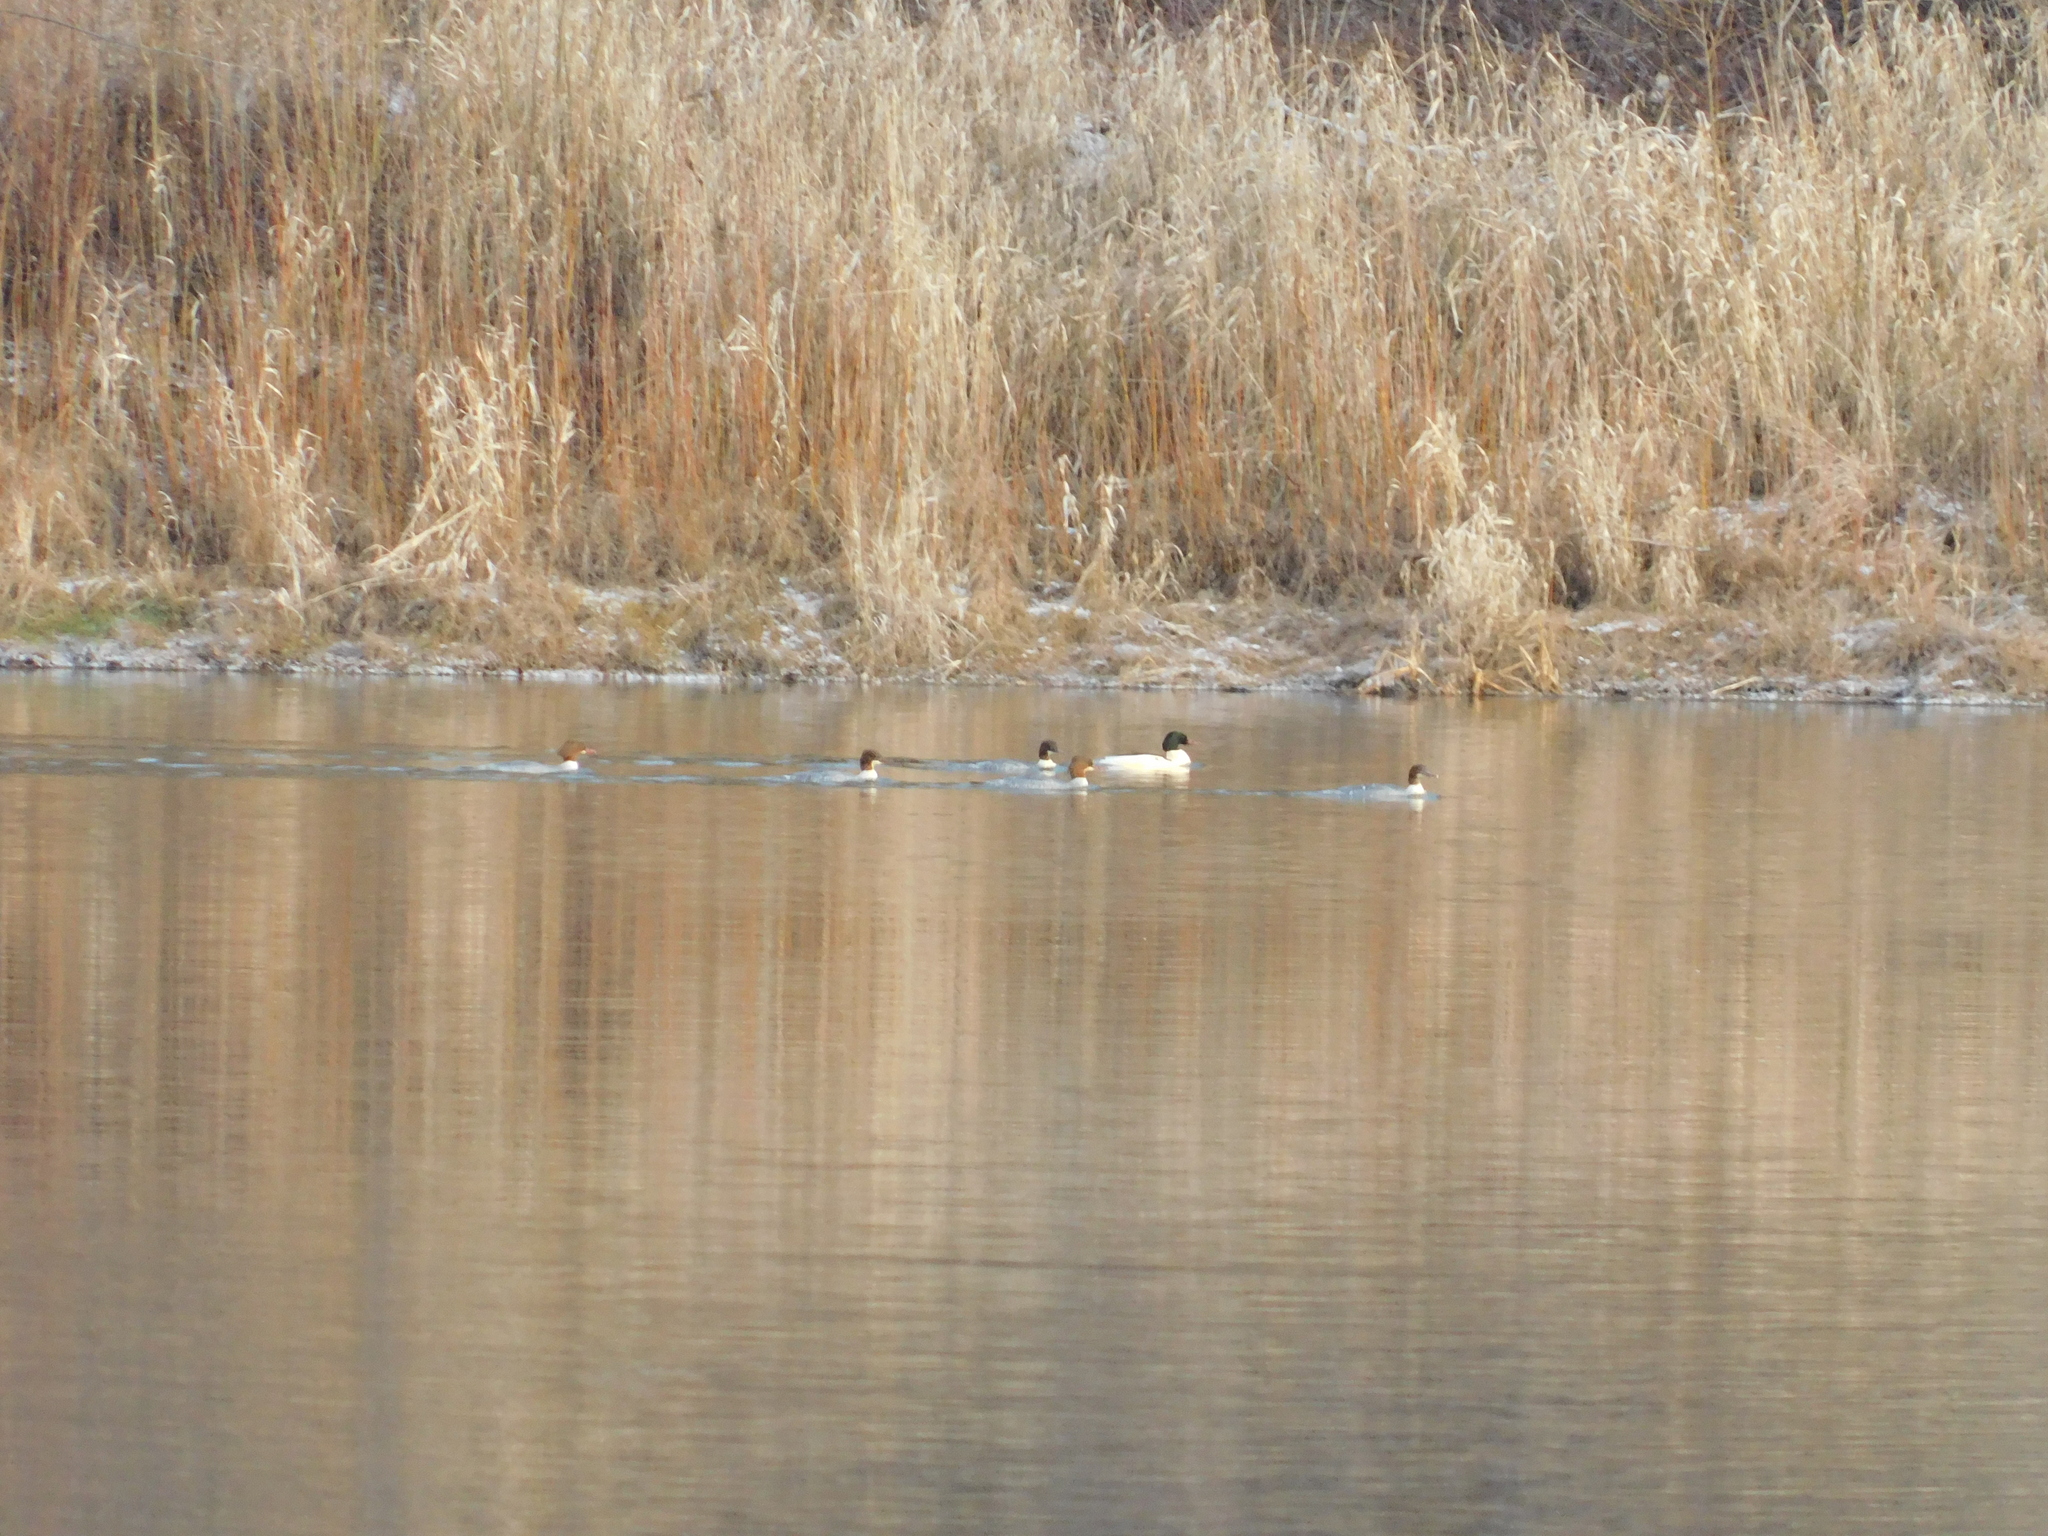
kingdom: Animalia
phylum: Chordata
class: Aves
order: Anseriformes
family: Anatidae
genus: Mergus
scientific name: Mergus merganser
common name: Common merganser
